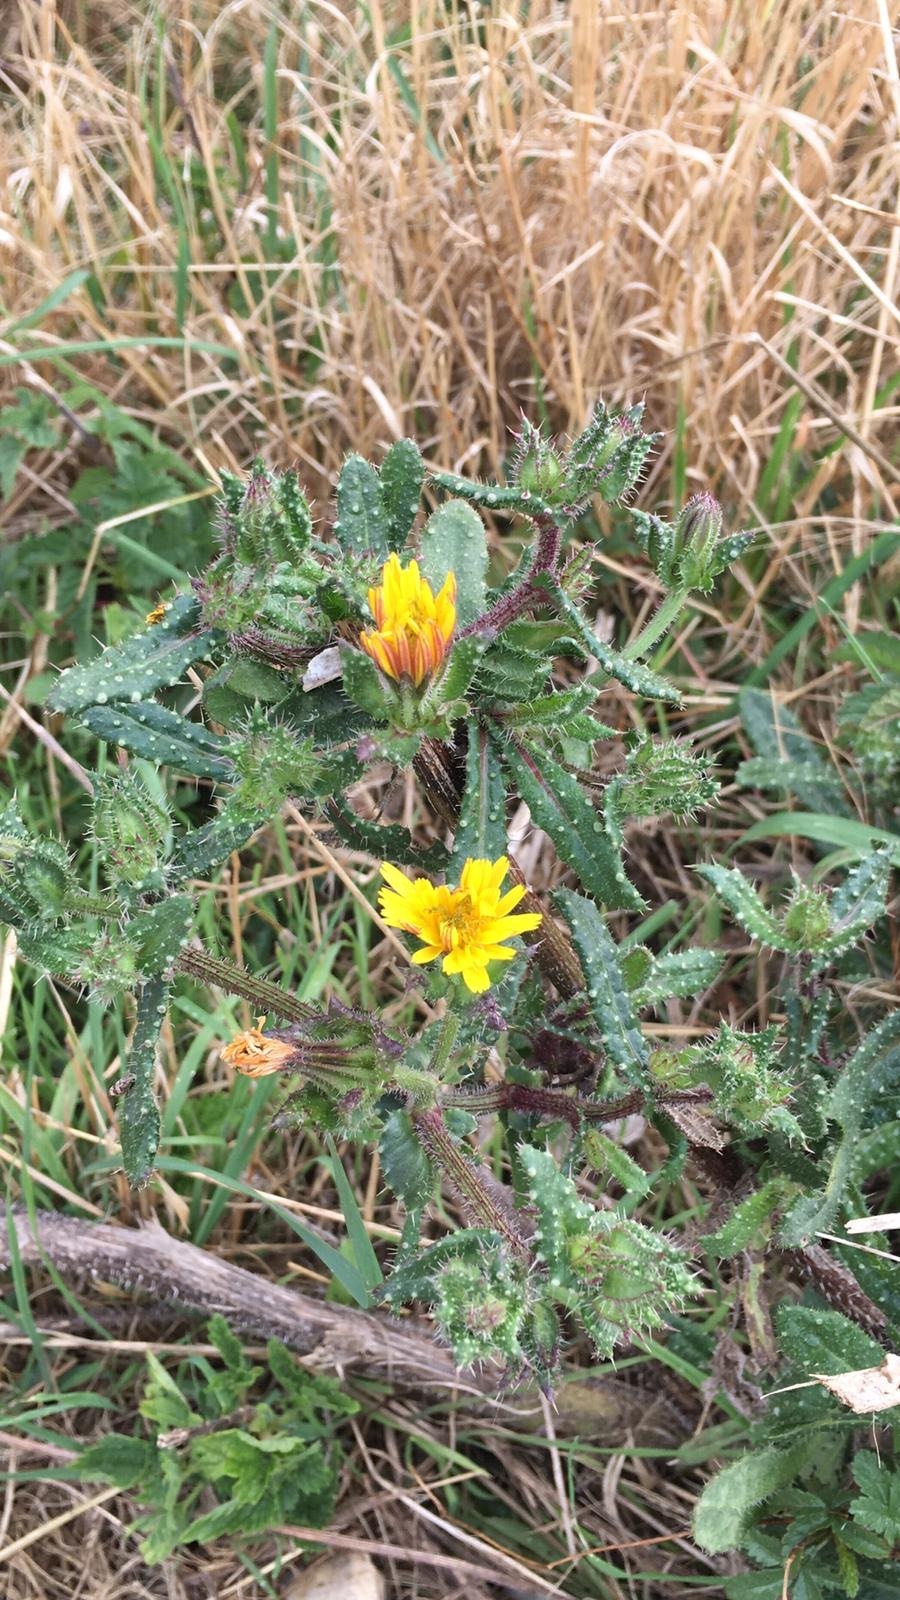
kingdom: Plantae
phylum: Tracheophyta
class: Magnoliopsida
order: Asterales
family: Asteraceae
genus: Helminthotheca
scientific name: Helminthotheca echioides
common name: Ox-tongue
